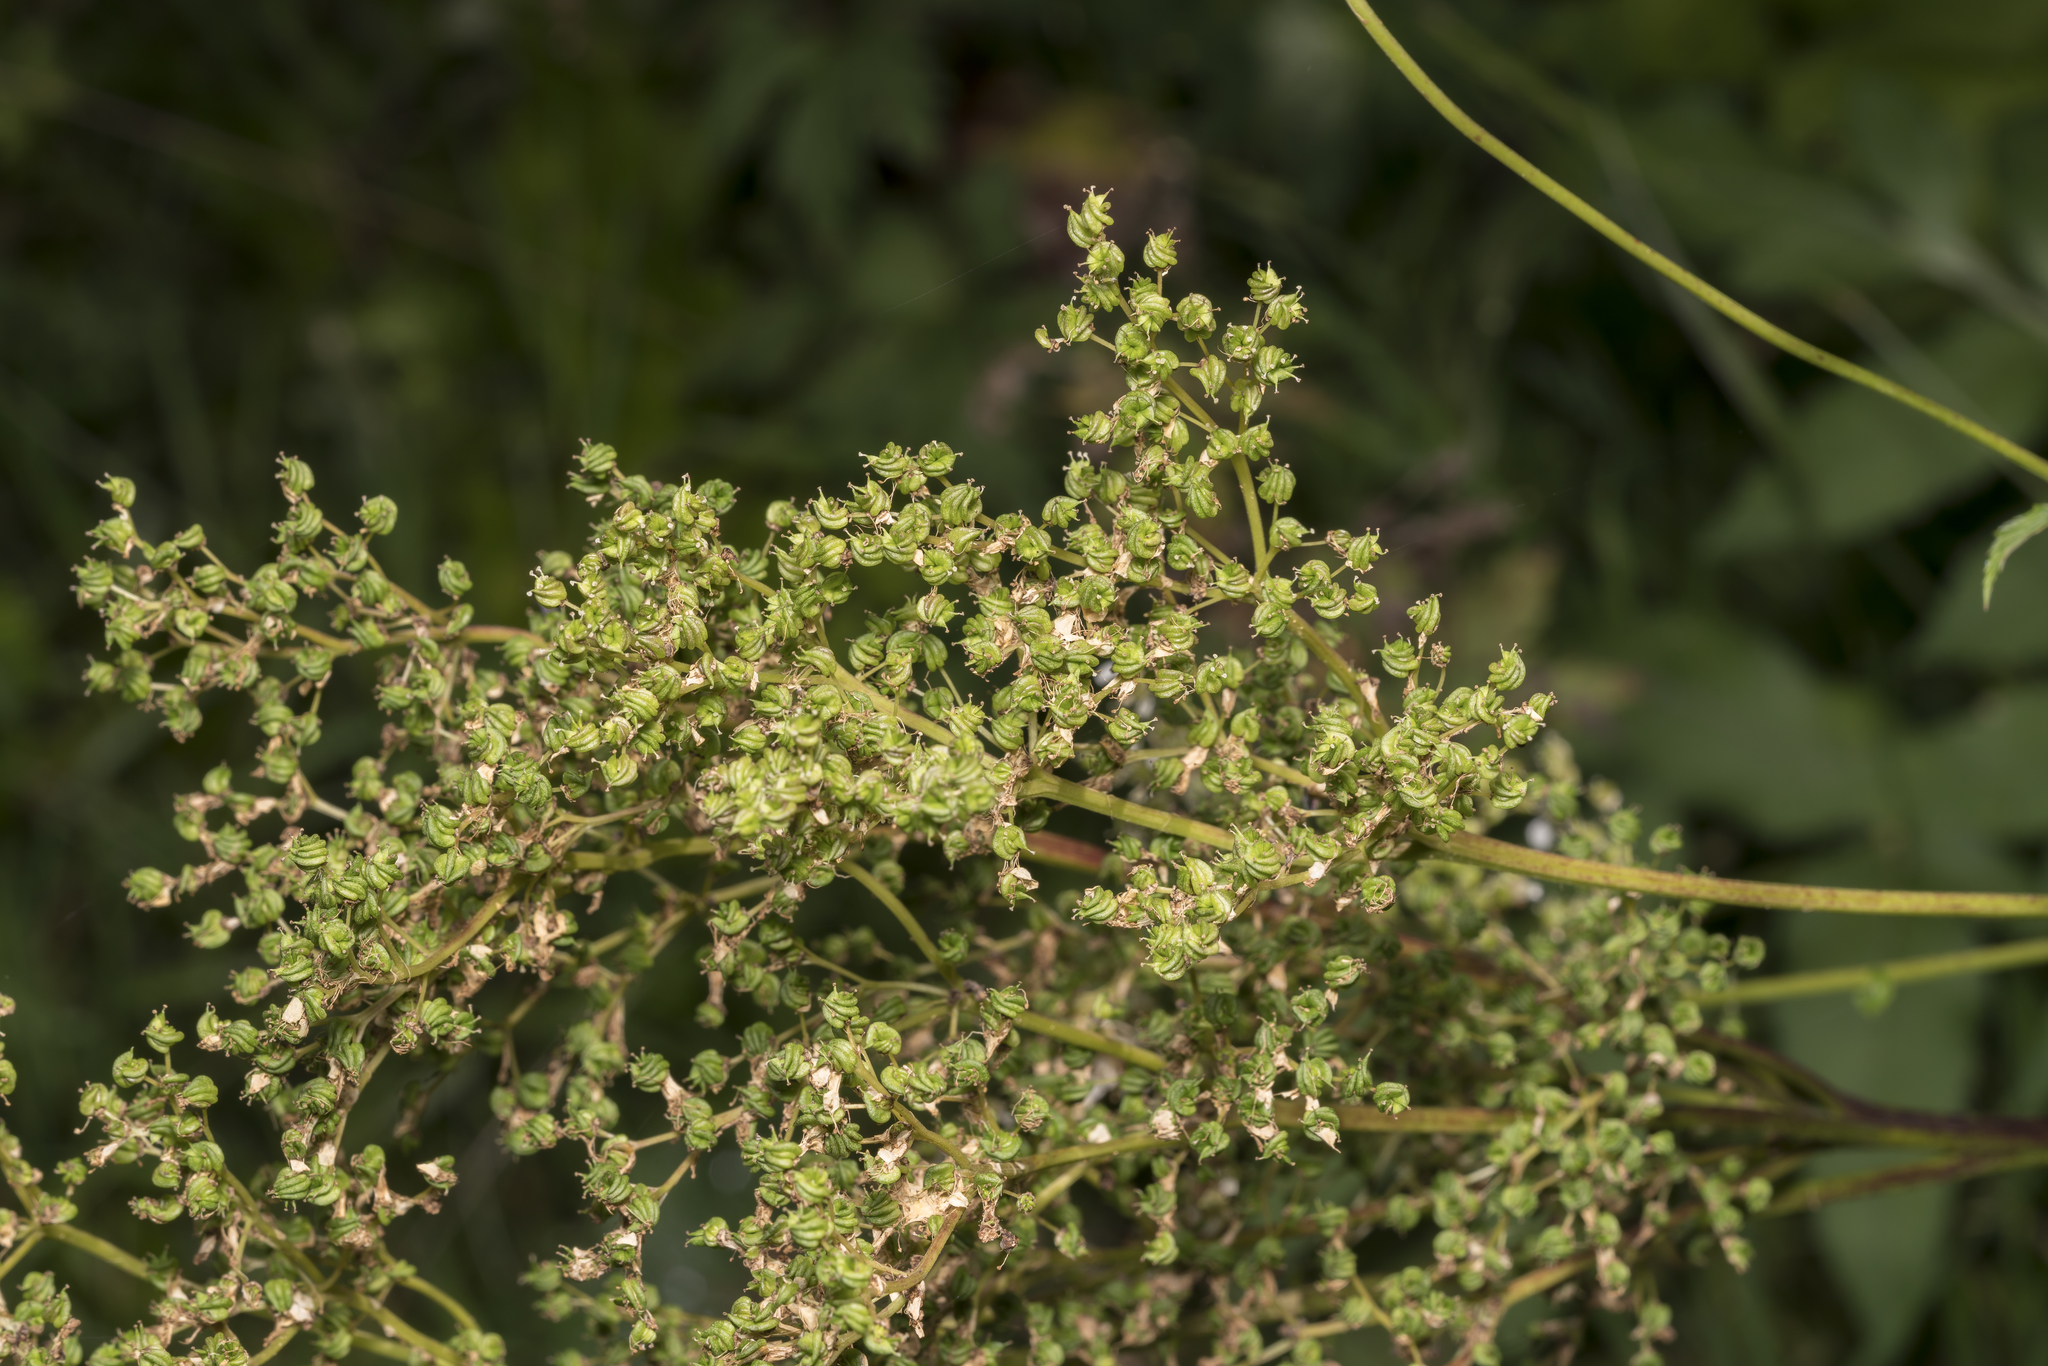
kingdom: Plantae
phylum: Tracheophyta
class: Magnoliopsida
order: Rosales
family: Rosaceae
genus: Filipendula
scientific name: Filipendula ulmaria
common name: Meadowsweet
